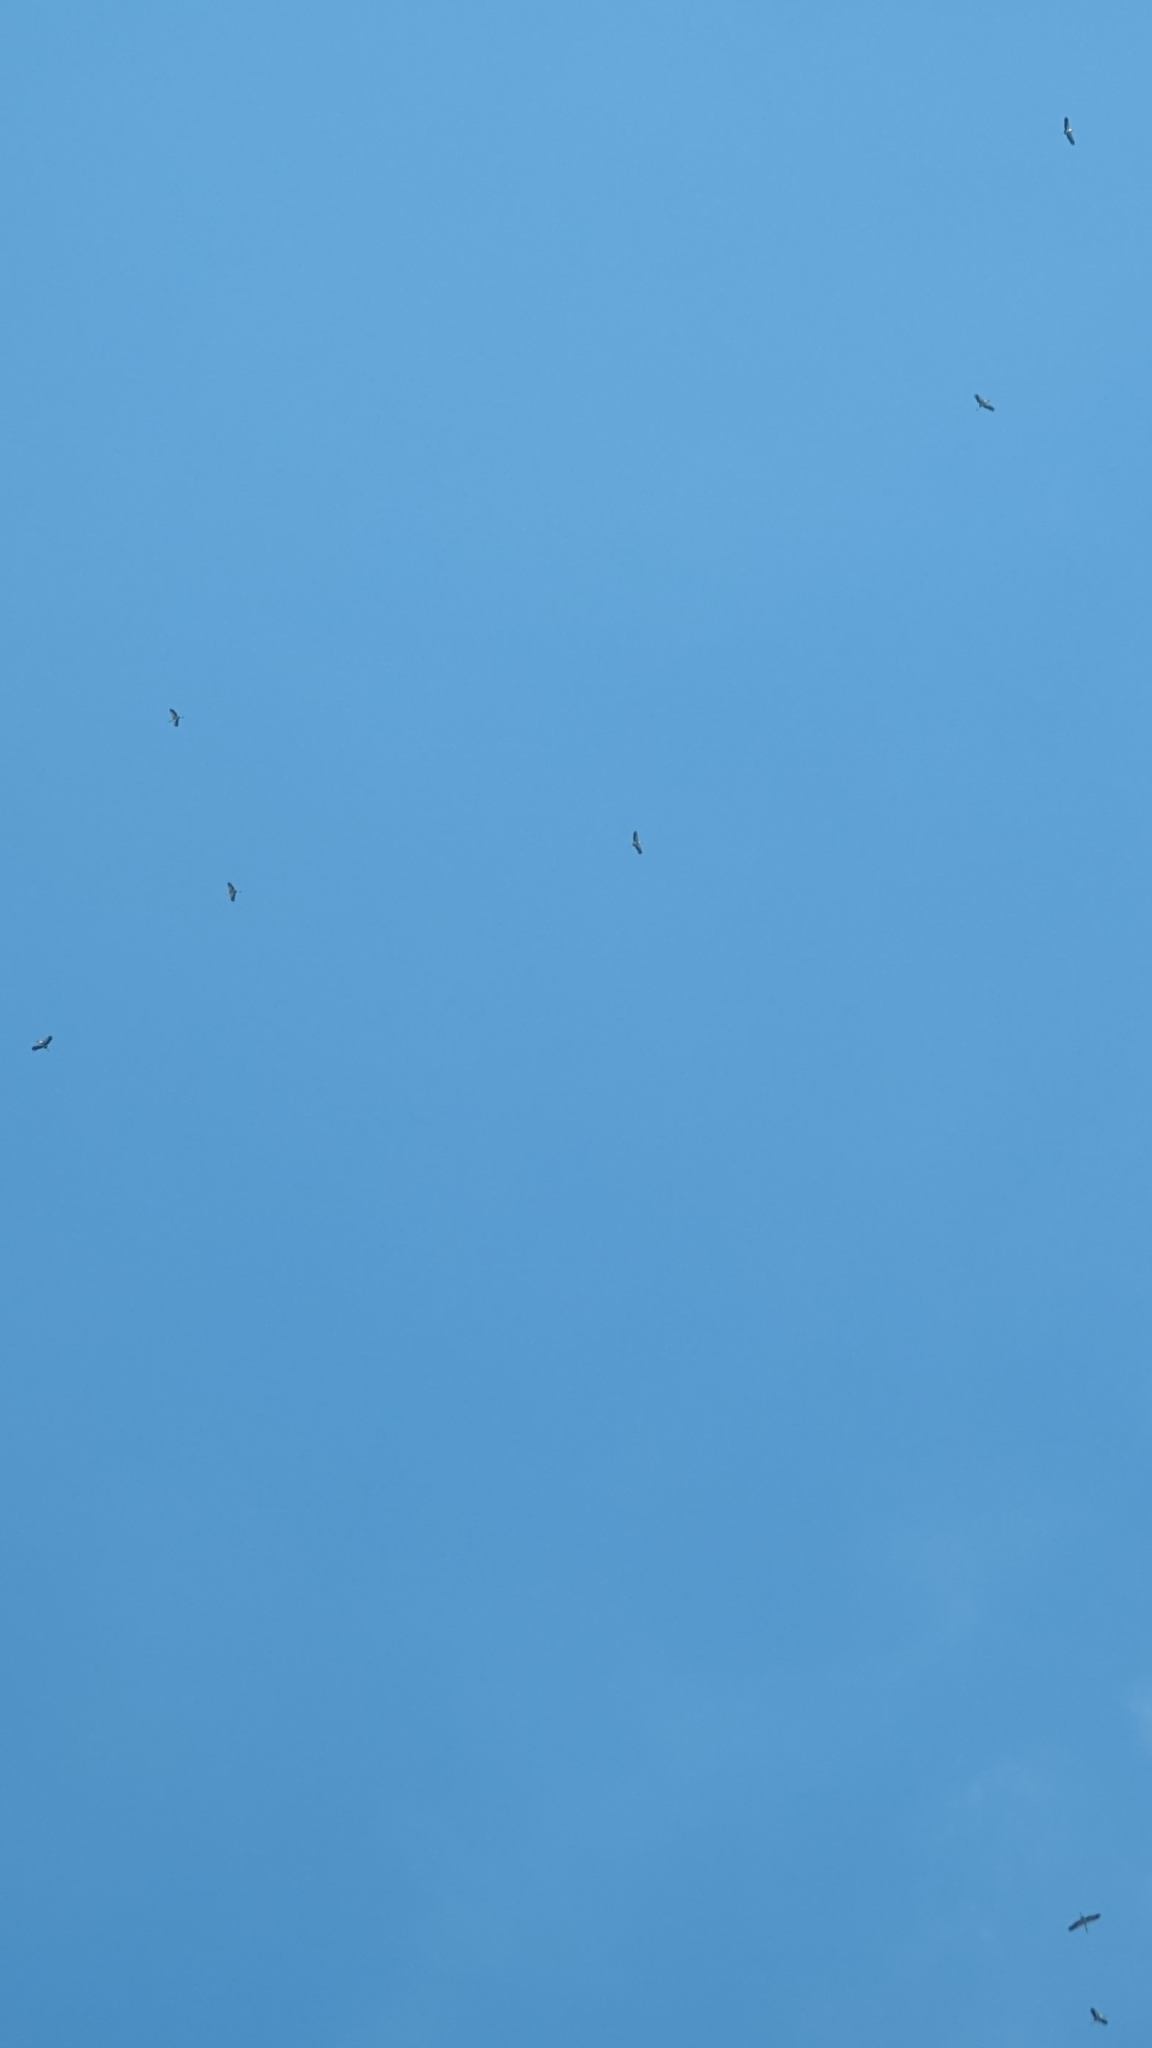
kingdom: Animalia
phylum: Chordata
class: Aves
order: Ciconiiformes
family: Ciconiidae
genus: Mycteria
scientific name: Mycteria americana
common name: Wood stork
